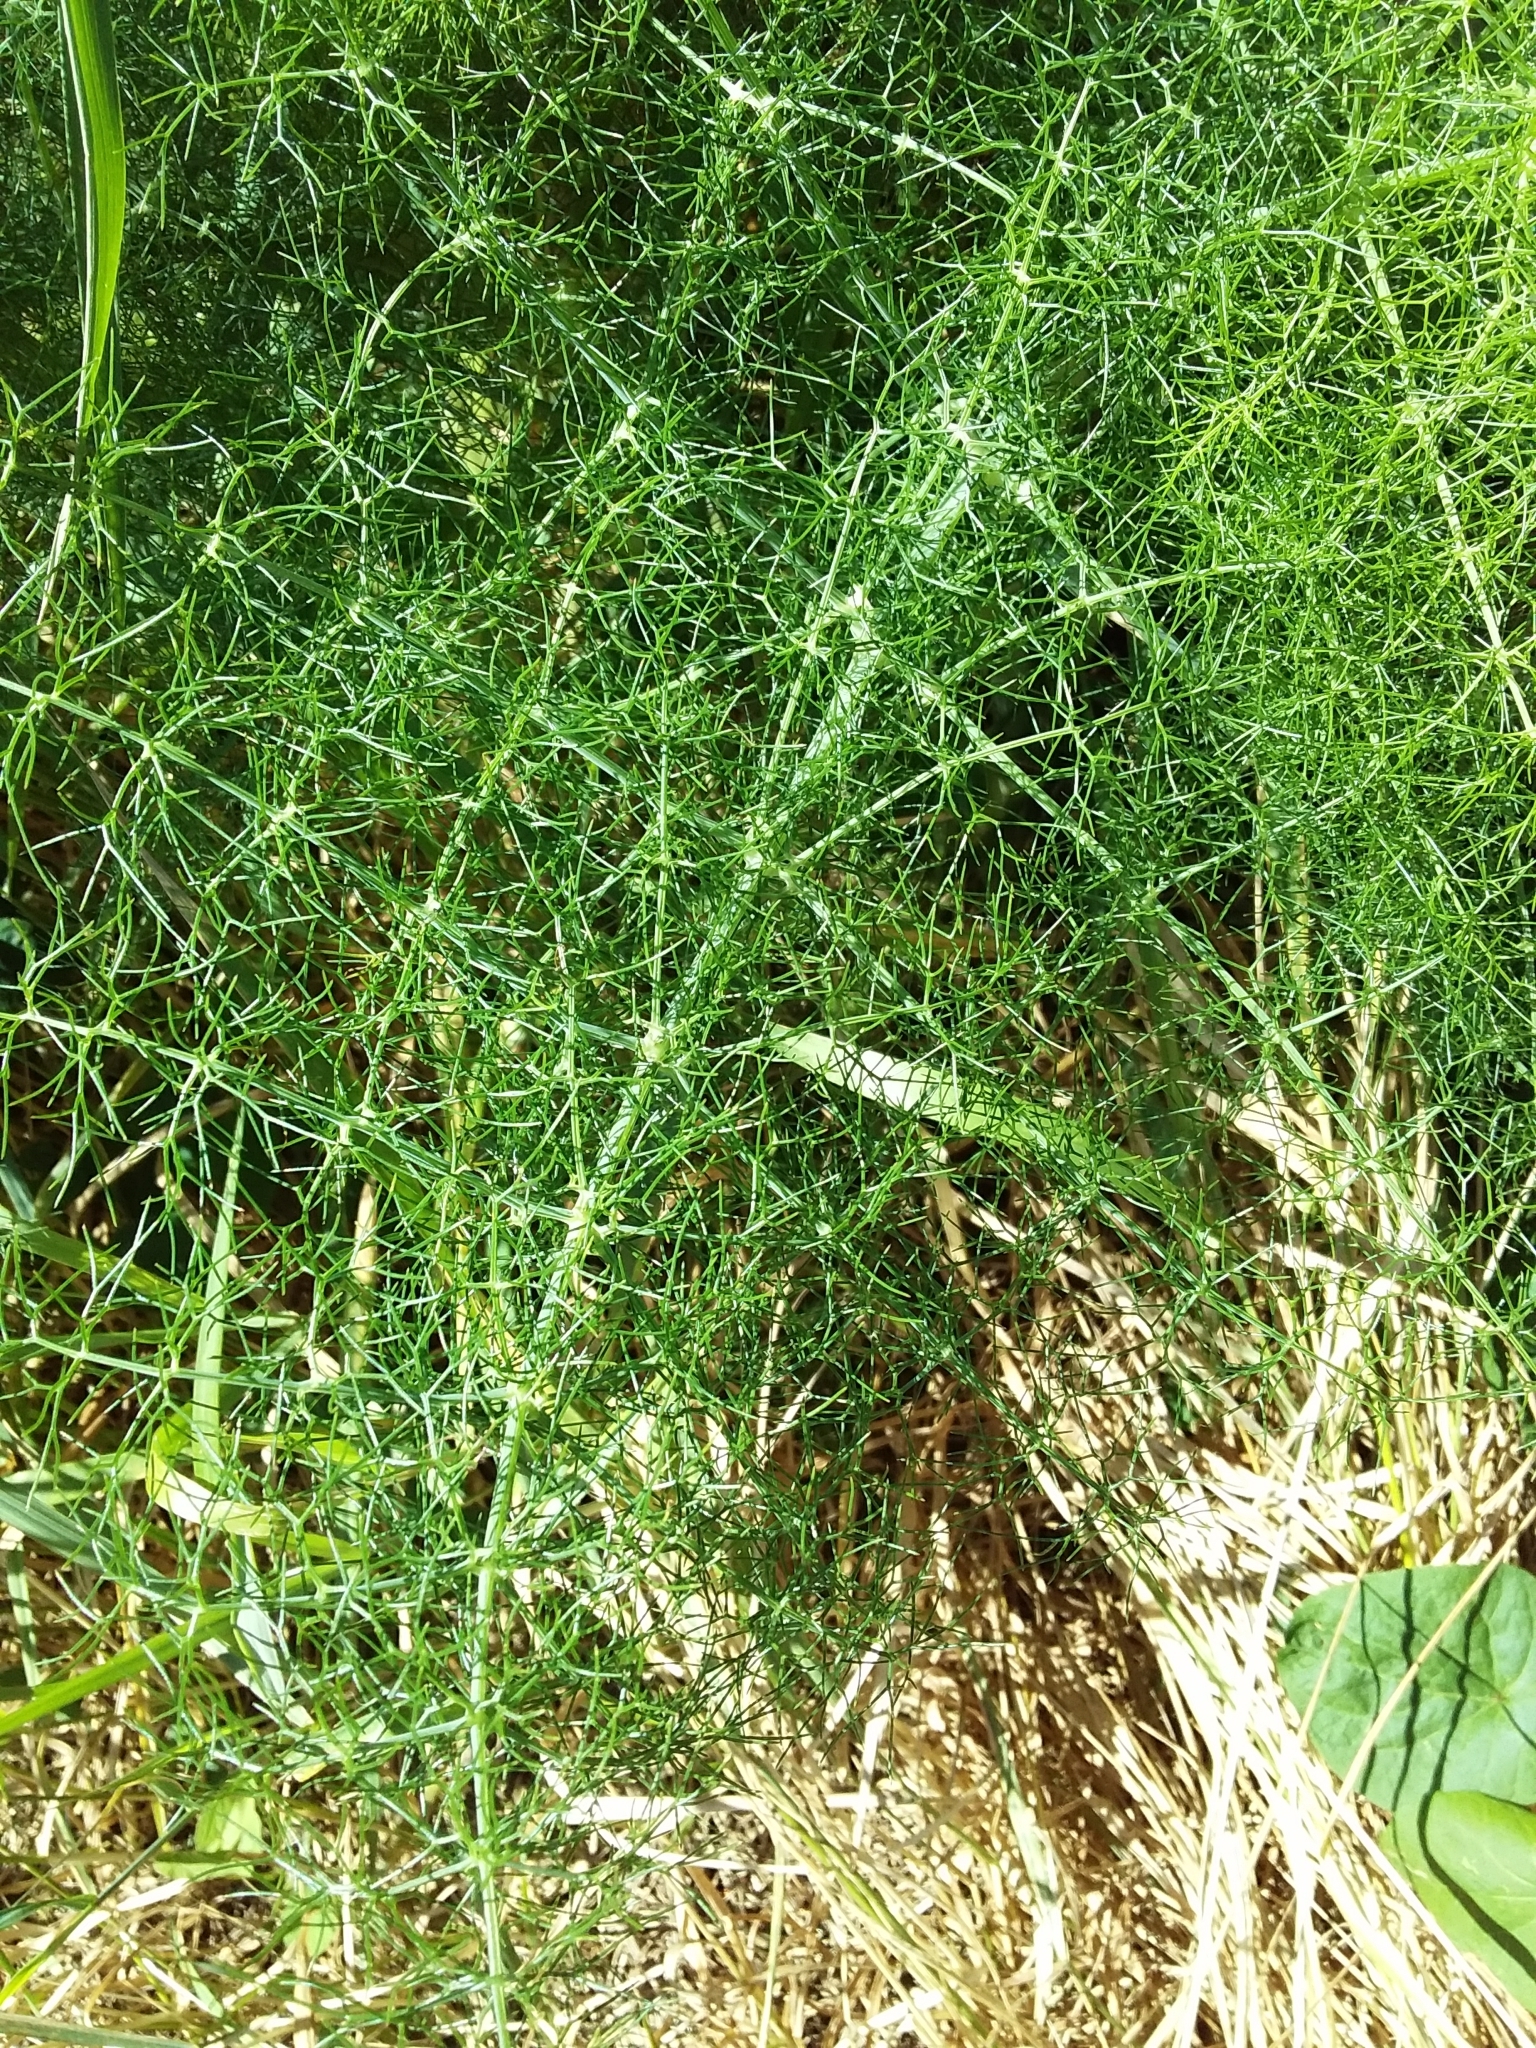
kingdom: Plantae
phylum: Tracheophyta
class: Magnoliopsida
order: Apiales
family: Apiaceae
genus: Foeniculum
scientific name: Foeniculum vulgare
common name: Fennel
